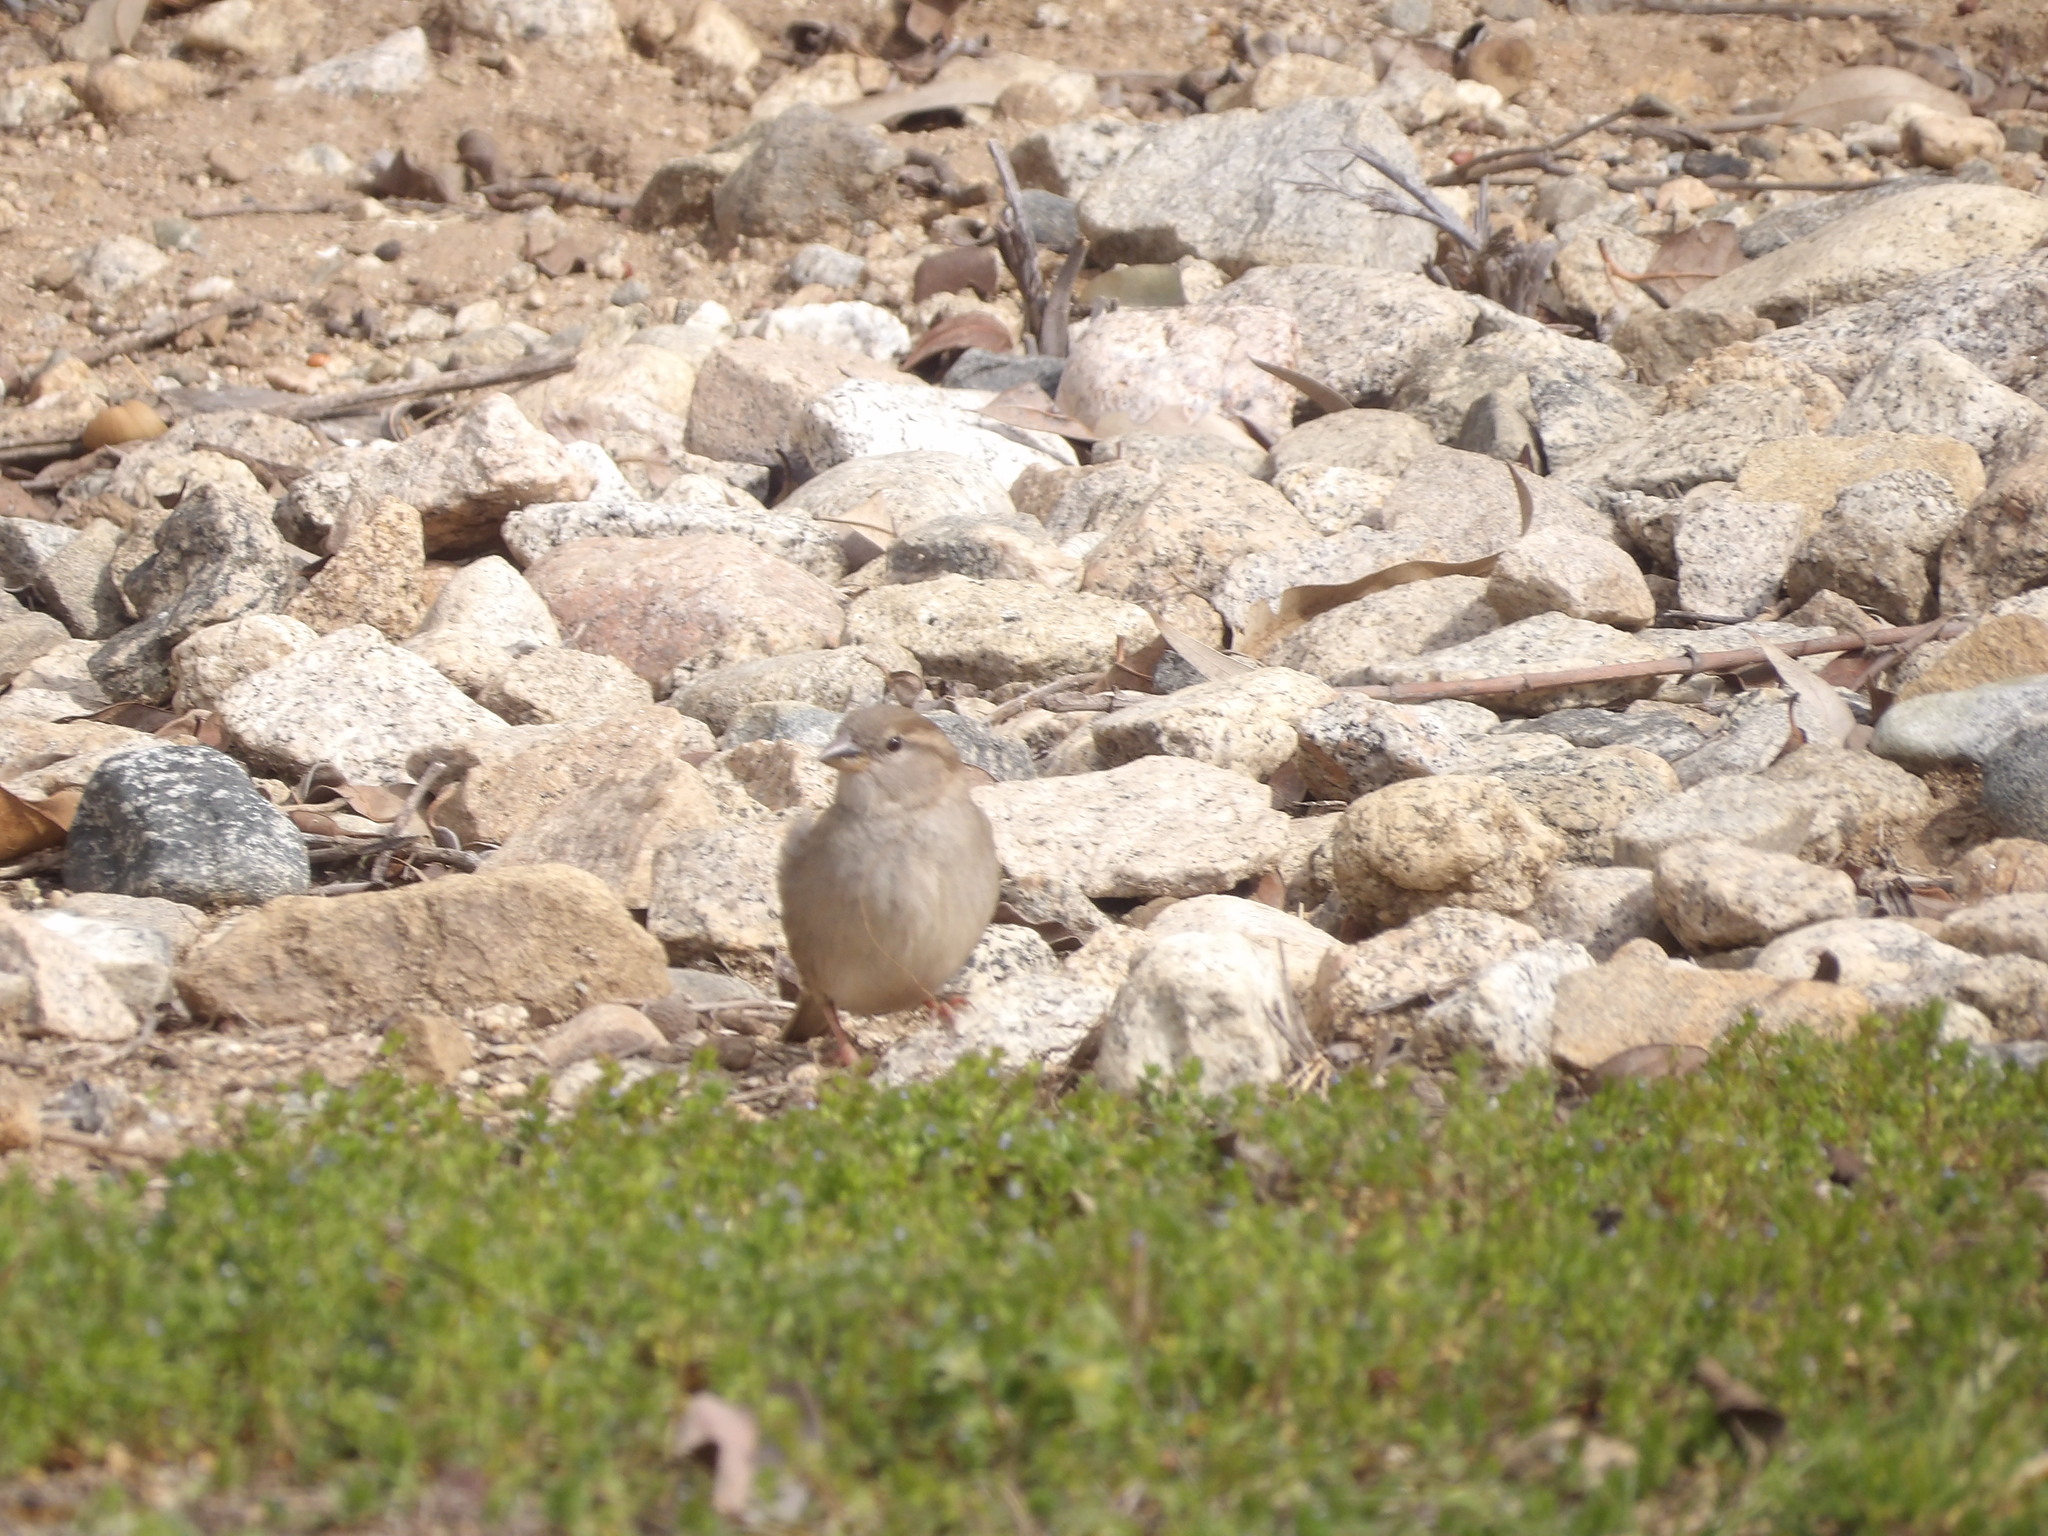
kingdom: Animalia
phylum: Chordata
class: Aves
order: Passeriformes
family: Passeridae
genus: Passer
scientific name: Passer domesticus
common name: House sparrow
